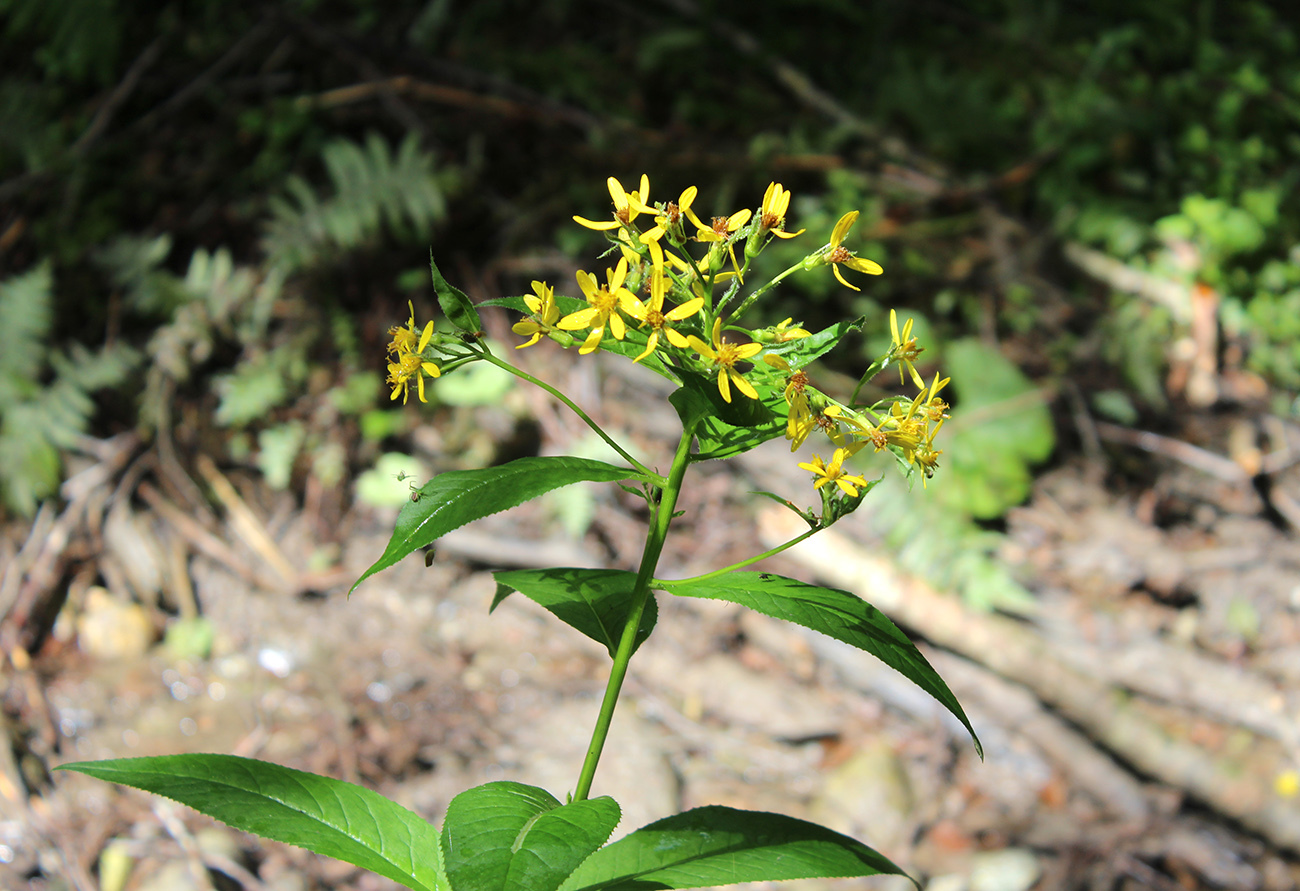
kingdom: Plantae
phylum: Tracheophyta
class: Magnoliopsida
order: Asterales
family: Asteraceae
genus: Senecio
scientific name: Senecio propinquus
